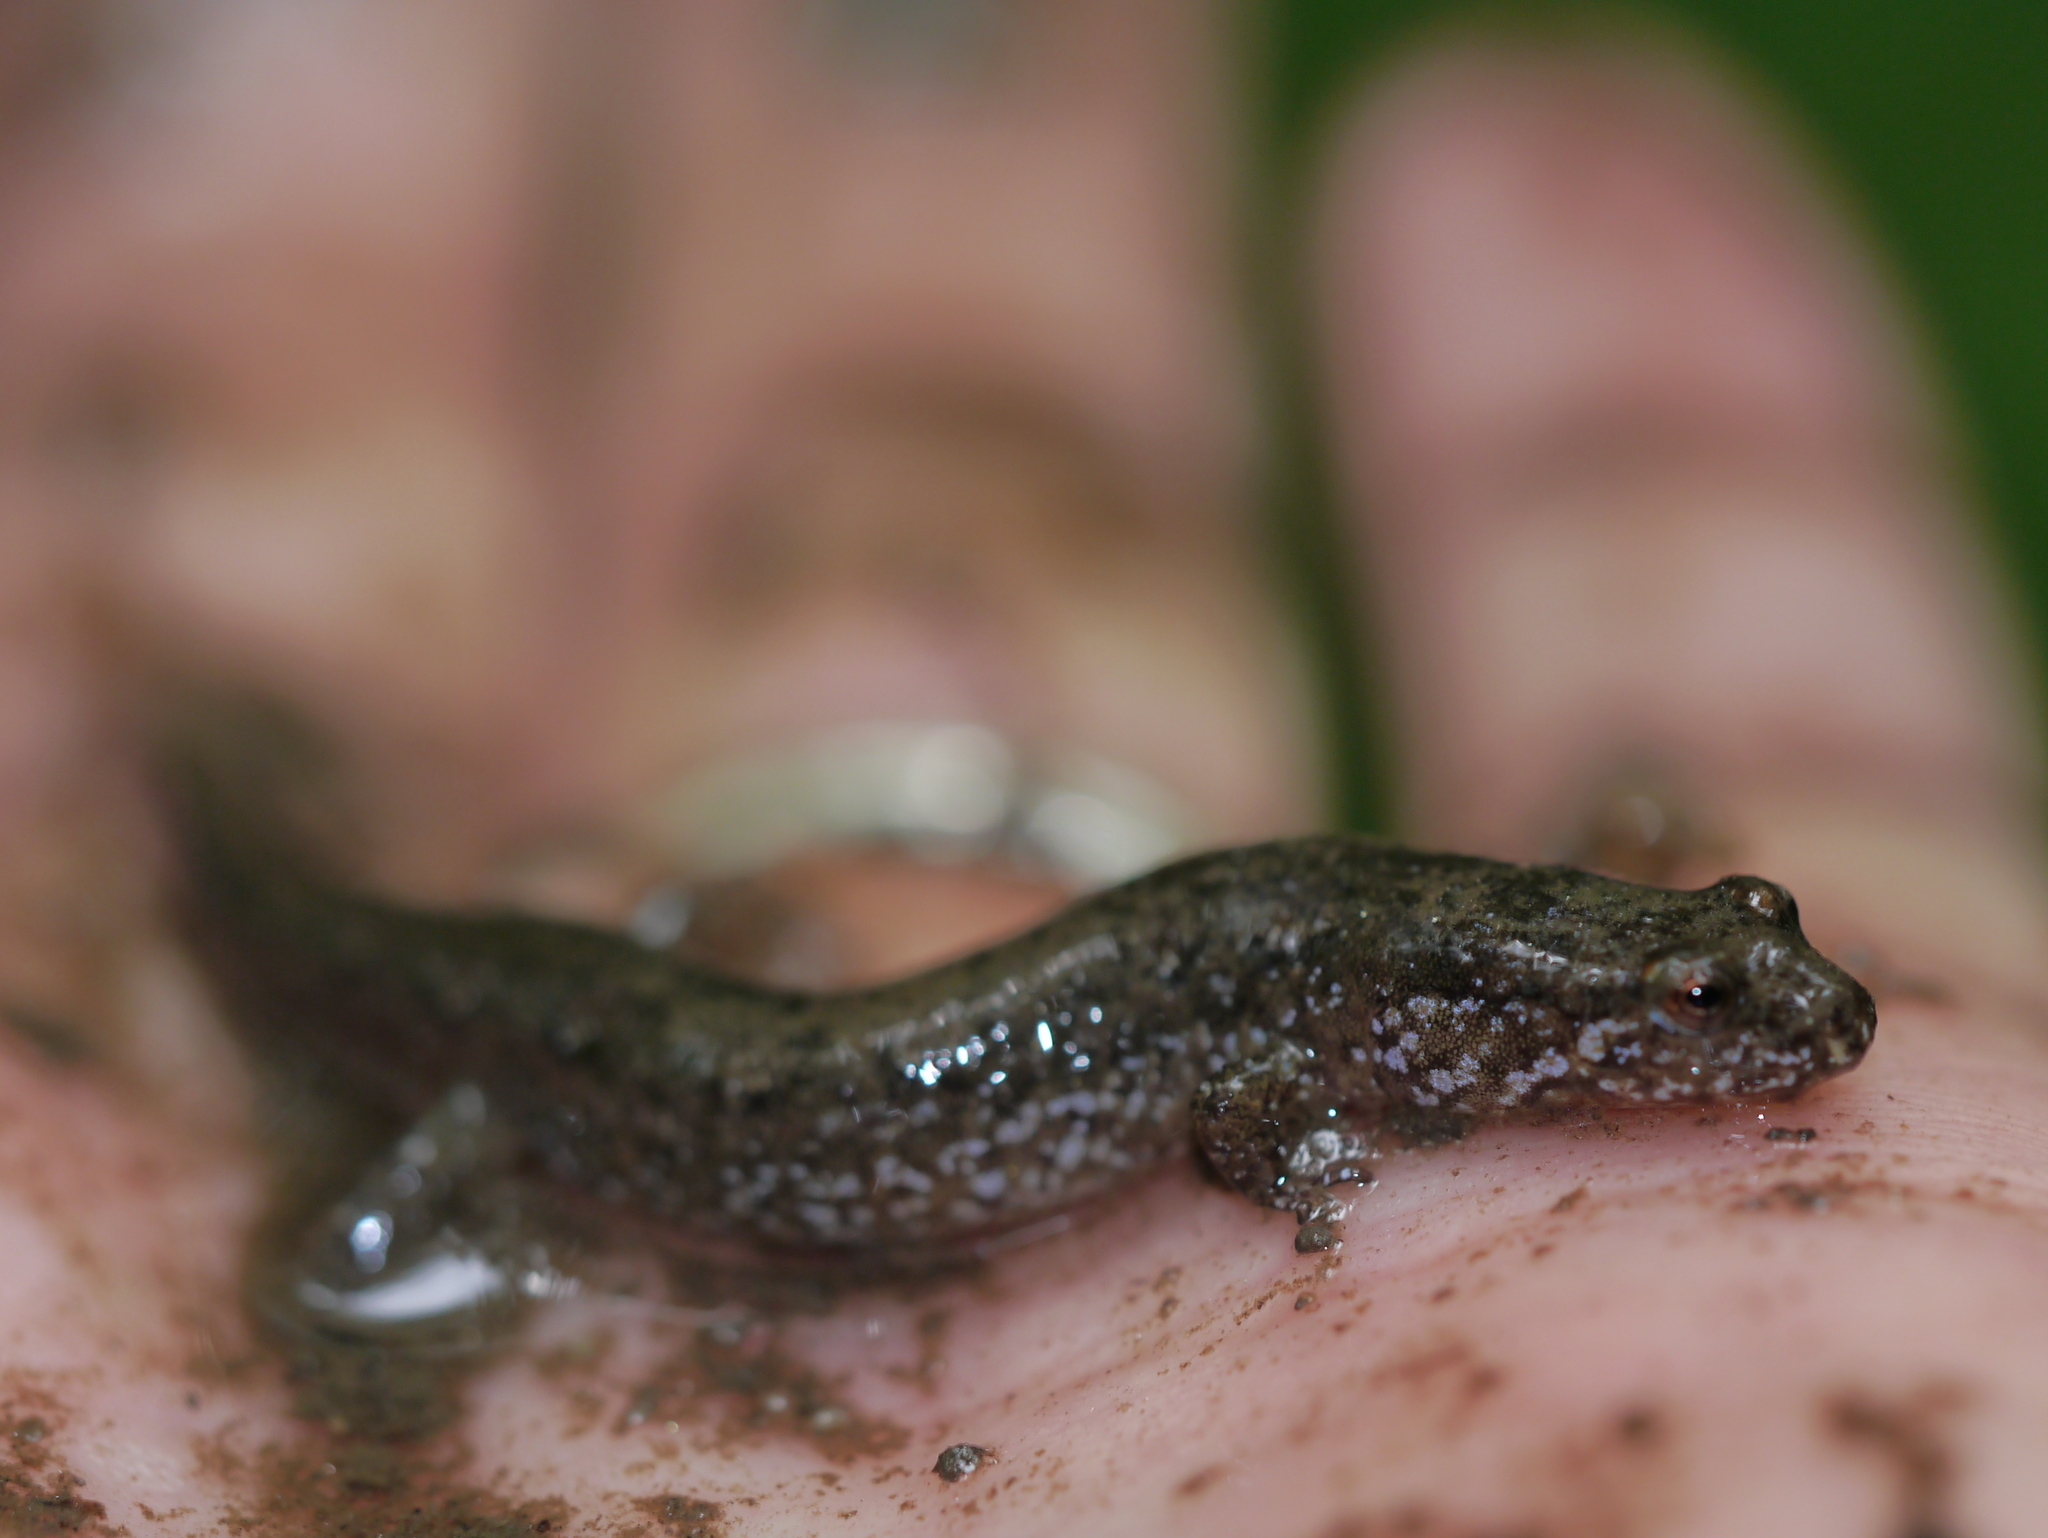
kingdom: Animalia
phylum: Chordata
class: Amphibia
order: Caudata
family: Plethodontidae
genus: Desmognathus
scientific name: Desmognathus santeetlah
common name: Santeetlah dusky salamander
